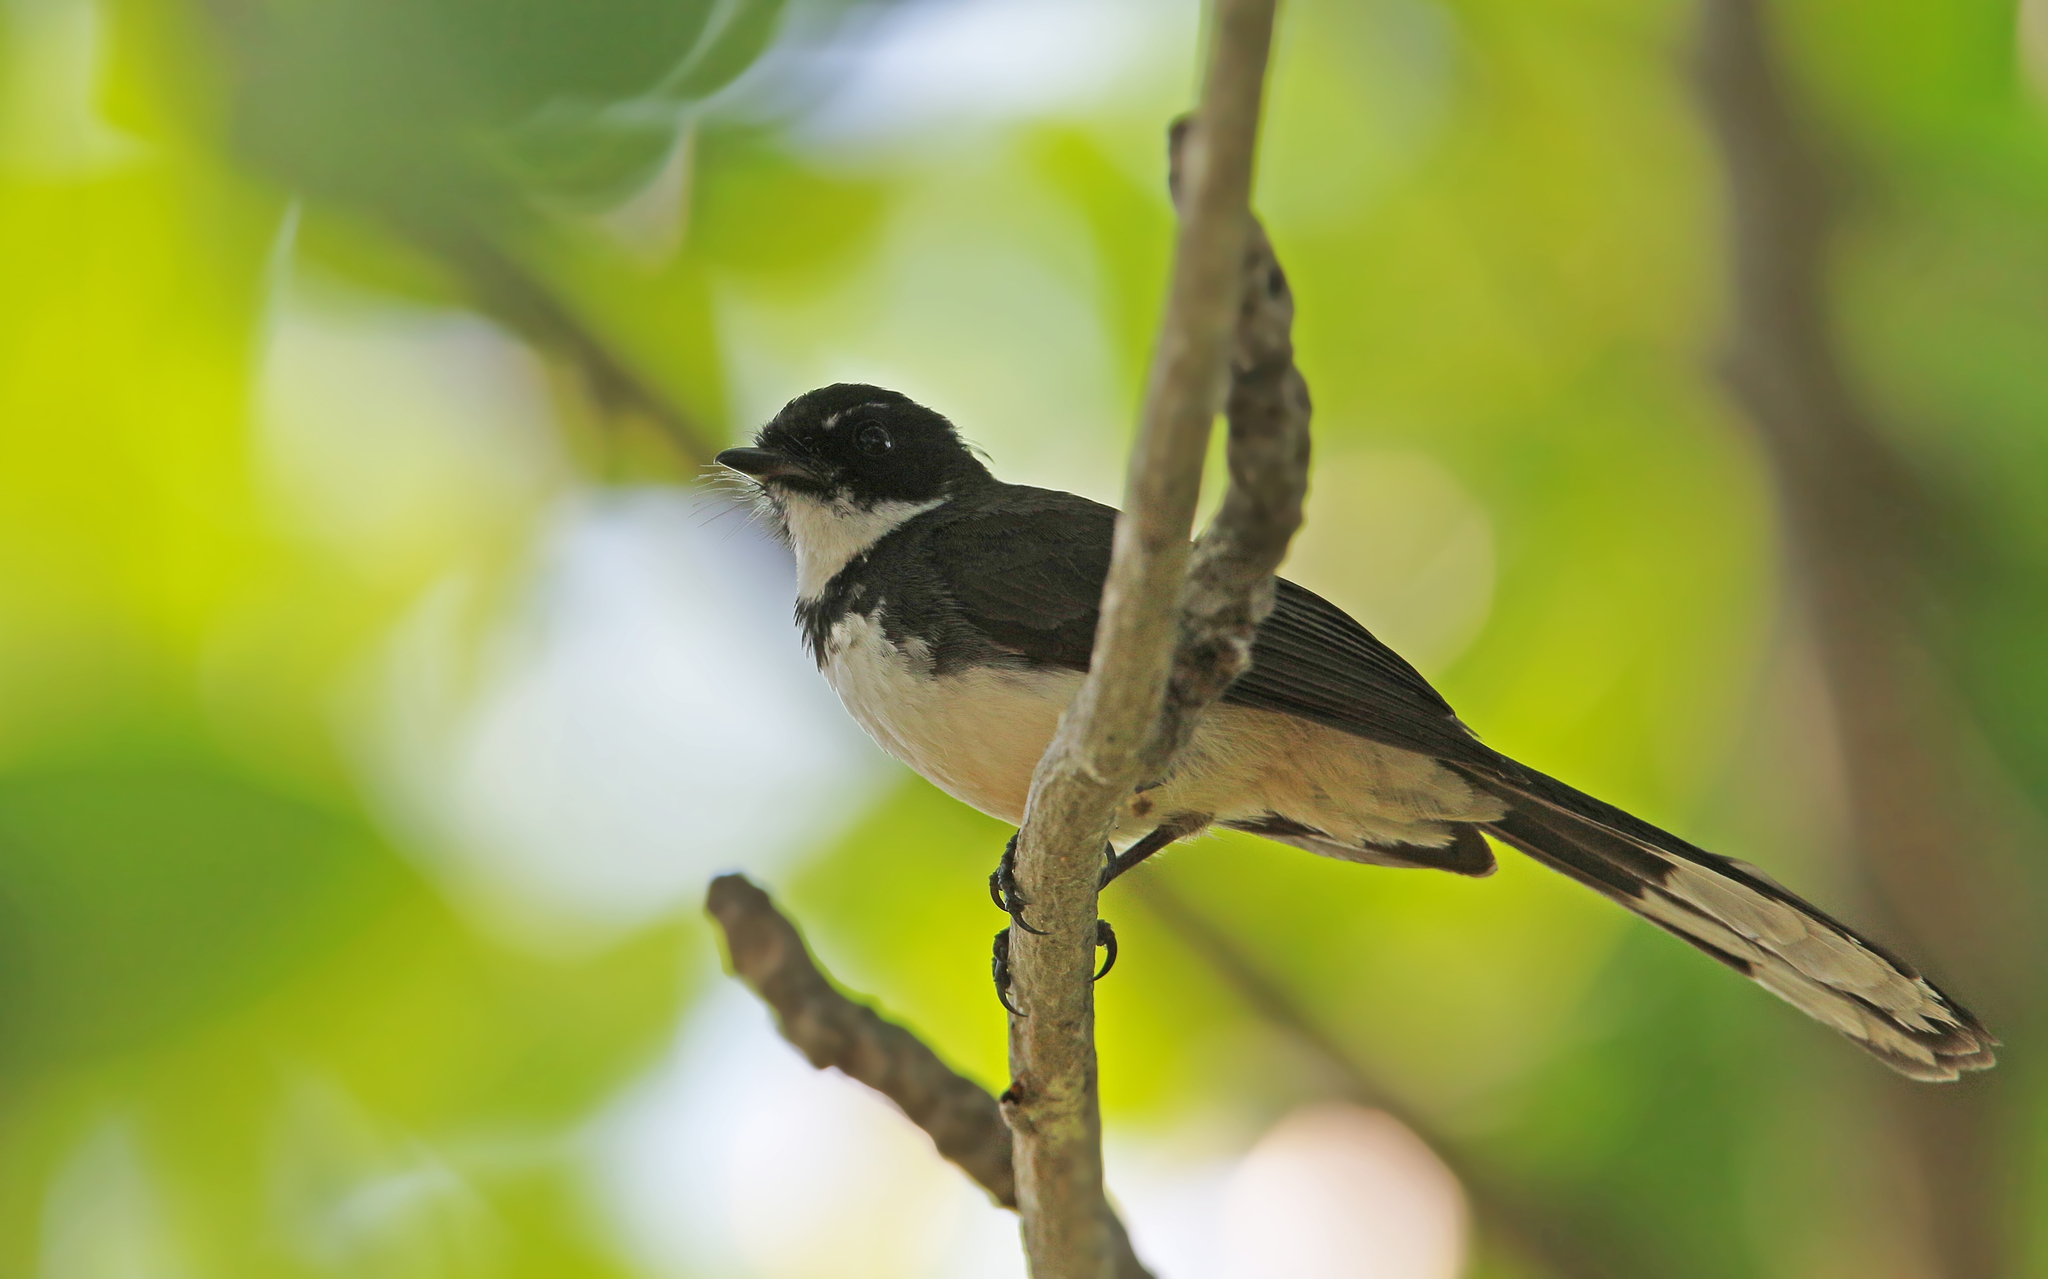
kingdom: Animalia
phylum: Chordata
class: Aves
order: Passeriformes
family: Rhipiduridae
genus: Rhipidura
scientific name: Rhipidura javanica
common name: Pied fantail
